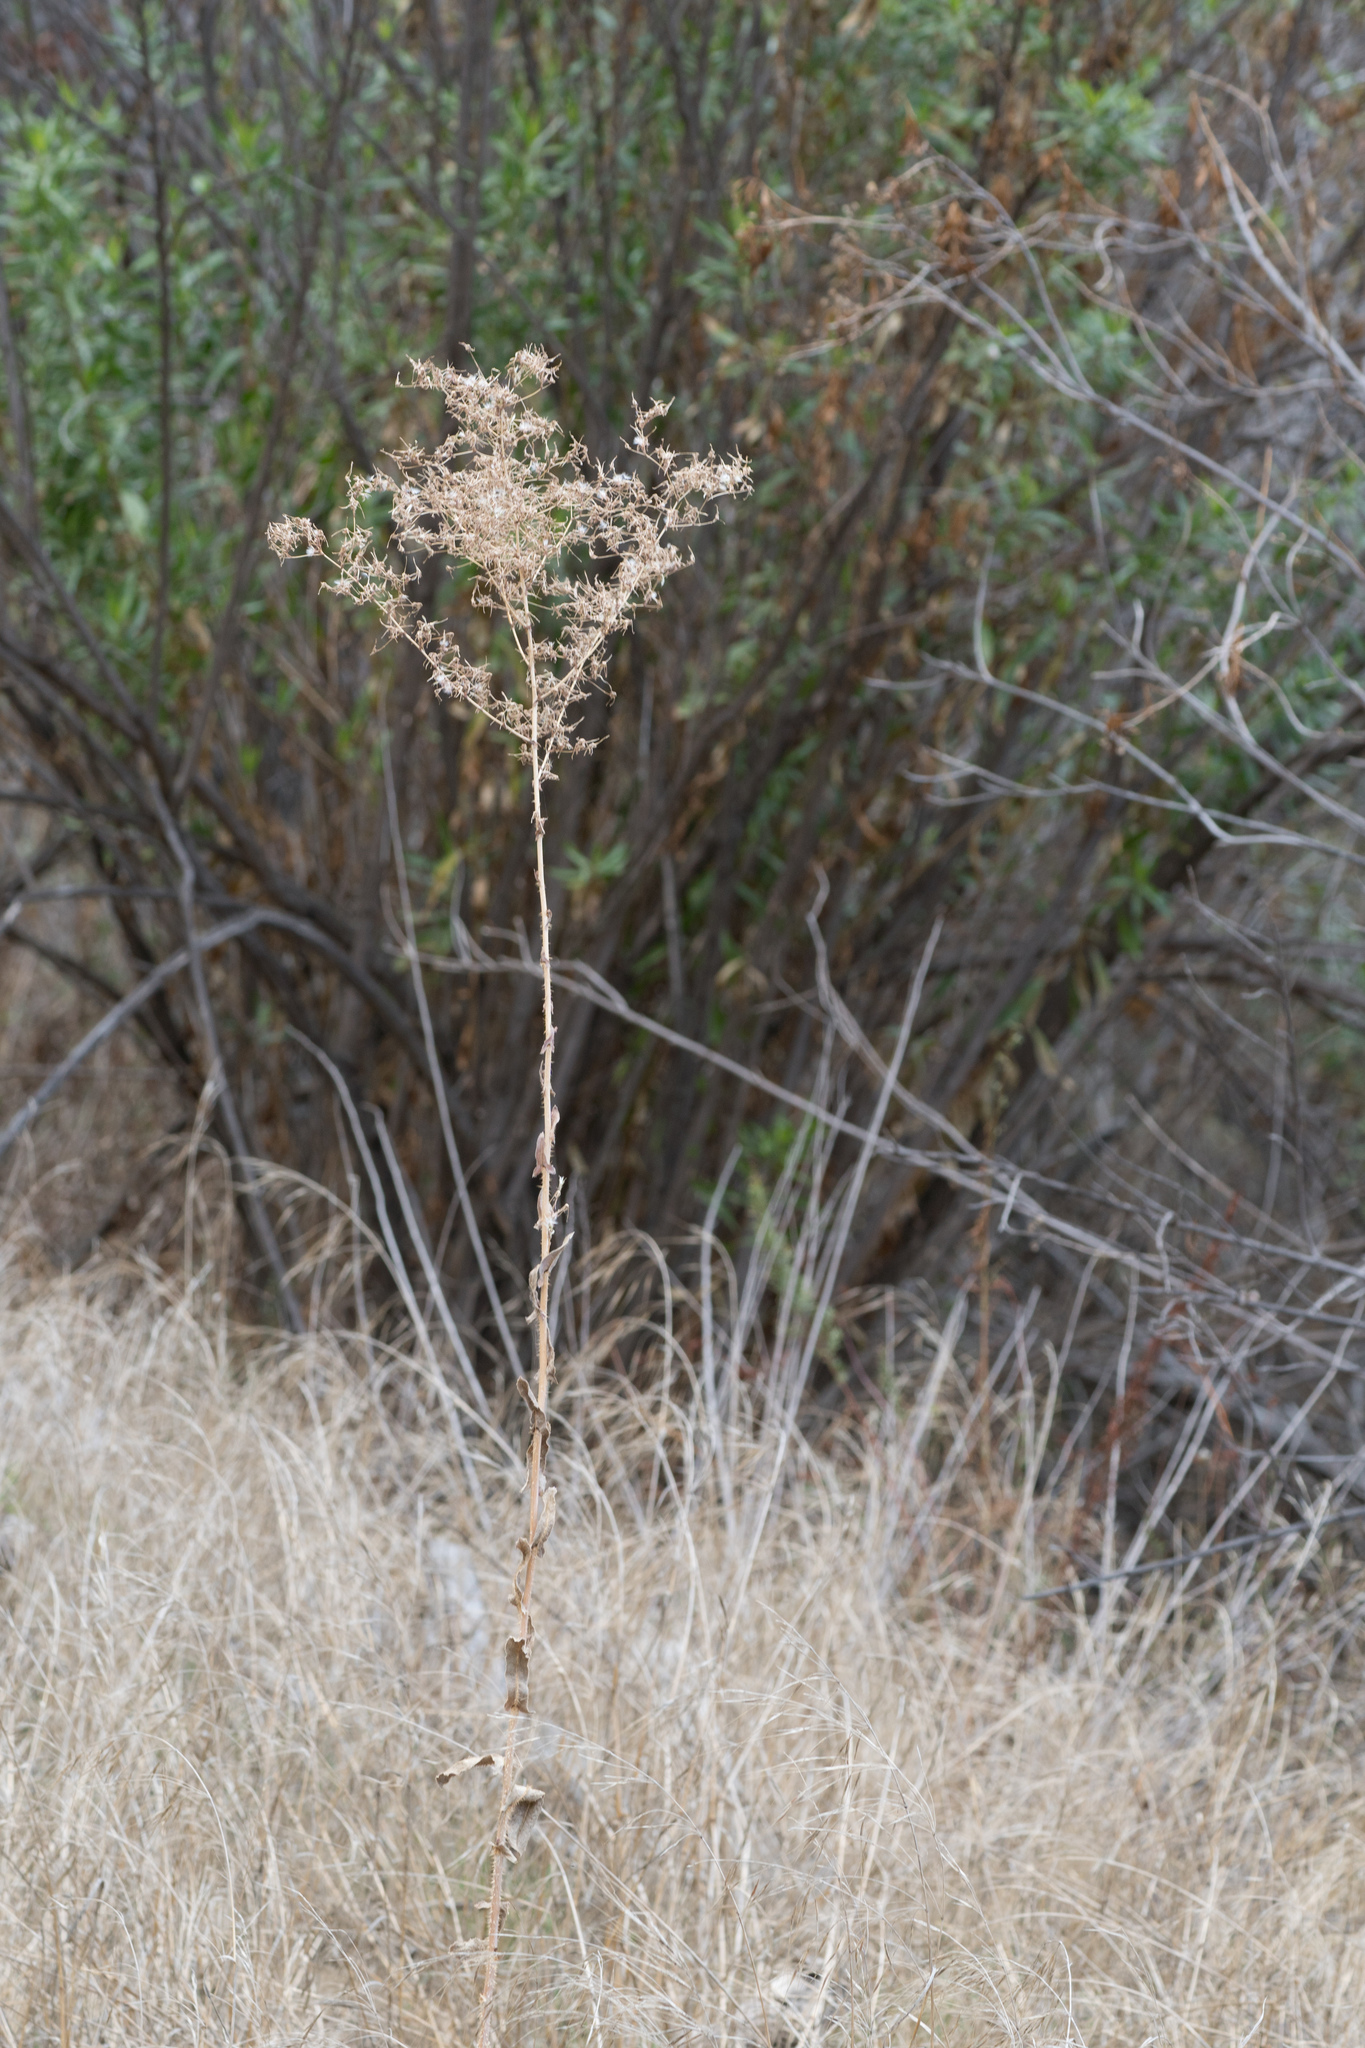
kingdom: Plantae
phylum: Tracheophyta
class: Magnoliopsida
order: Asterales
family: Asteraceae
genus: Lactuca
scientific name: Lactuca serriola
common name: Prickly lettuce
